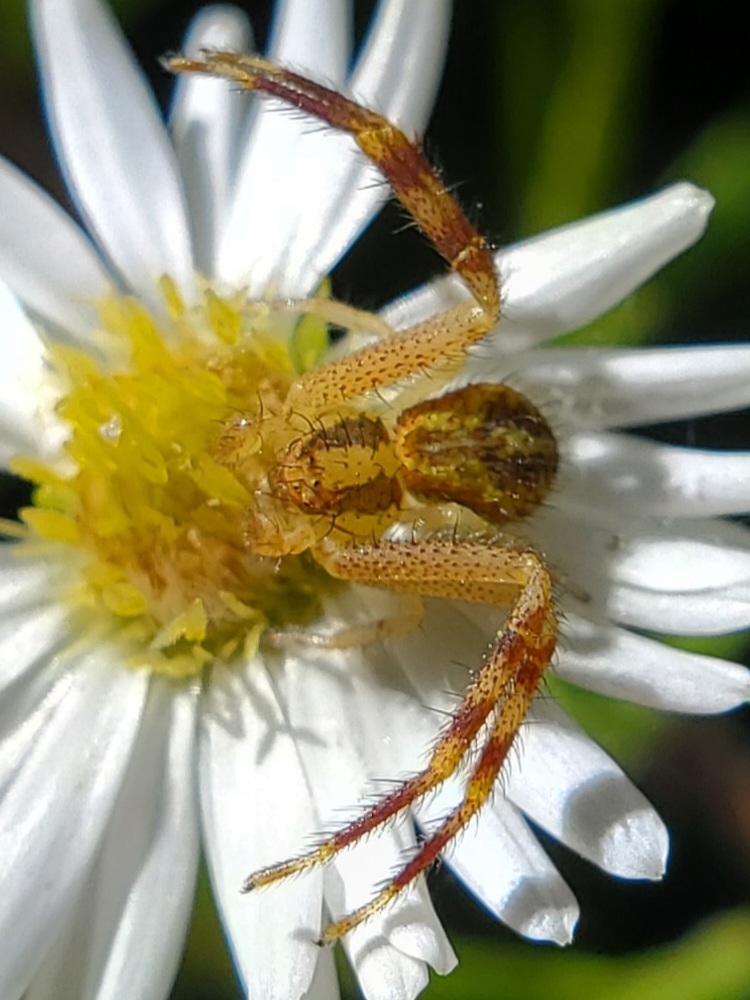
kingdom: Animalia
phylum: Arthropoda
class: Arachnida
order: Araneae
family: Thomisidae
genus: Mecaphesa
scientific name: Mecaphesa asperata
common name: Crab spiders
